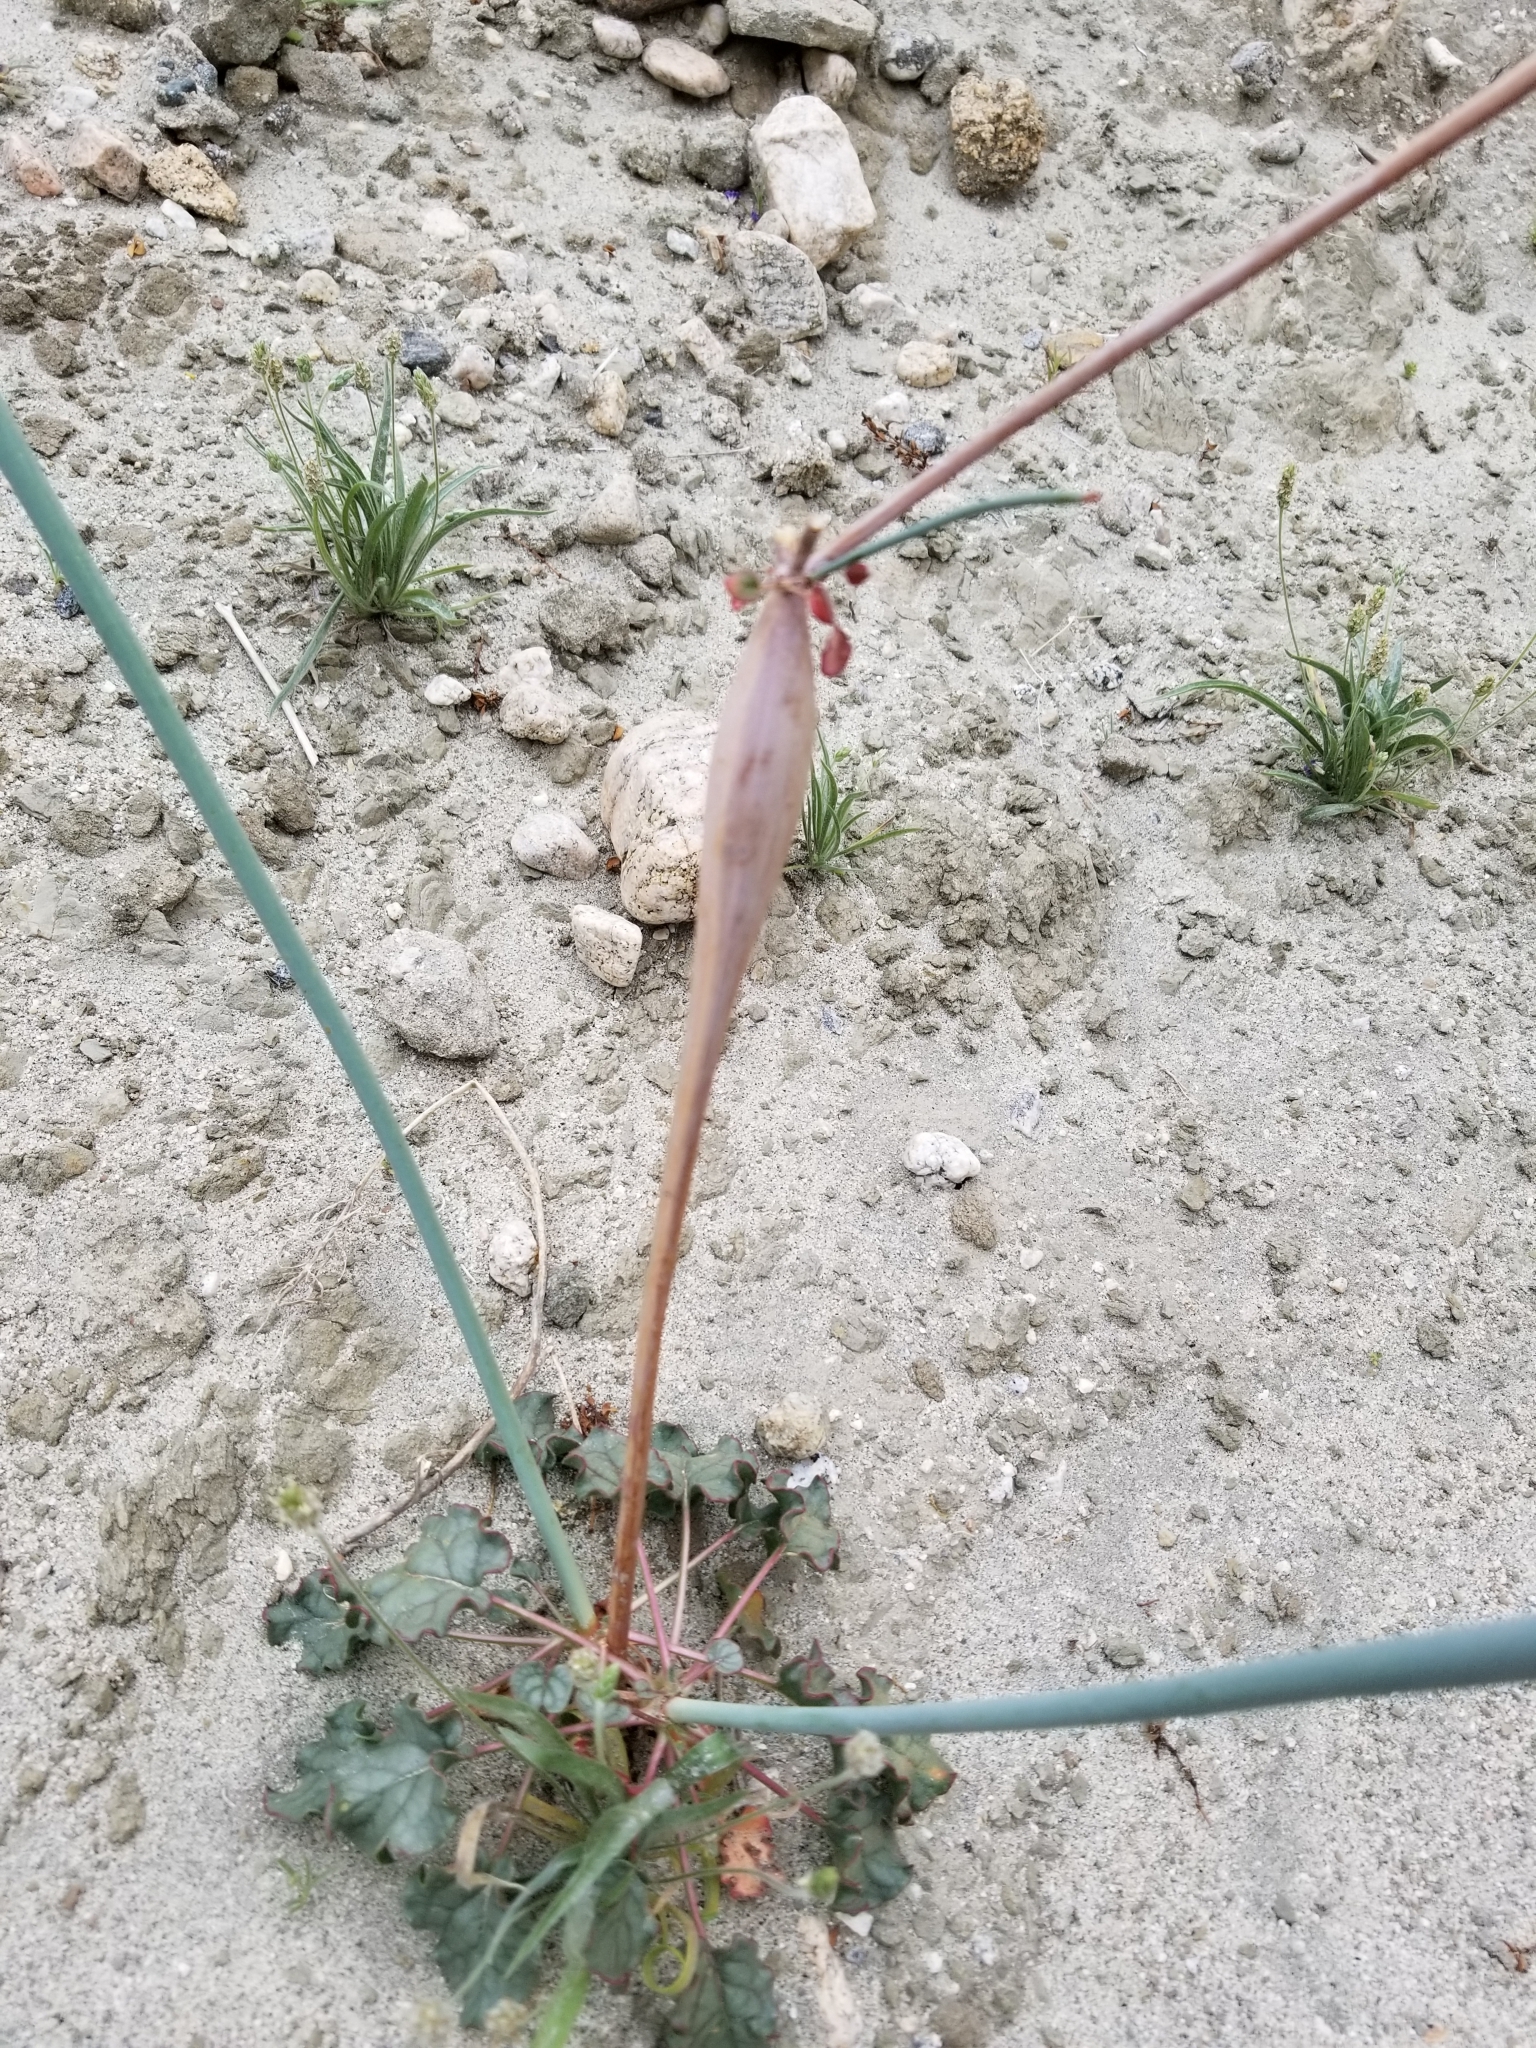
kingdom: Plantae
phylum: Tracheophyta
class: Magnoliopsida
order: Caryophyllales
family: Polygonaceae
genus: Eriogonum
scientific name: Eriogonum inflatum
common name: Desert trumpet
